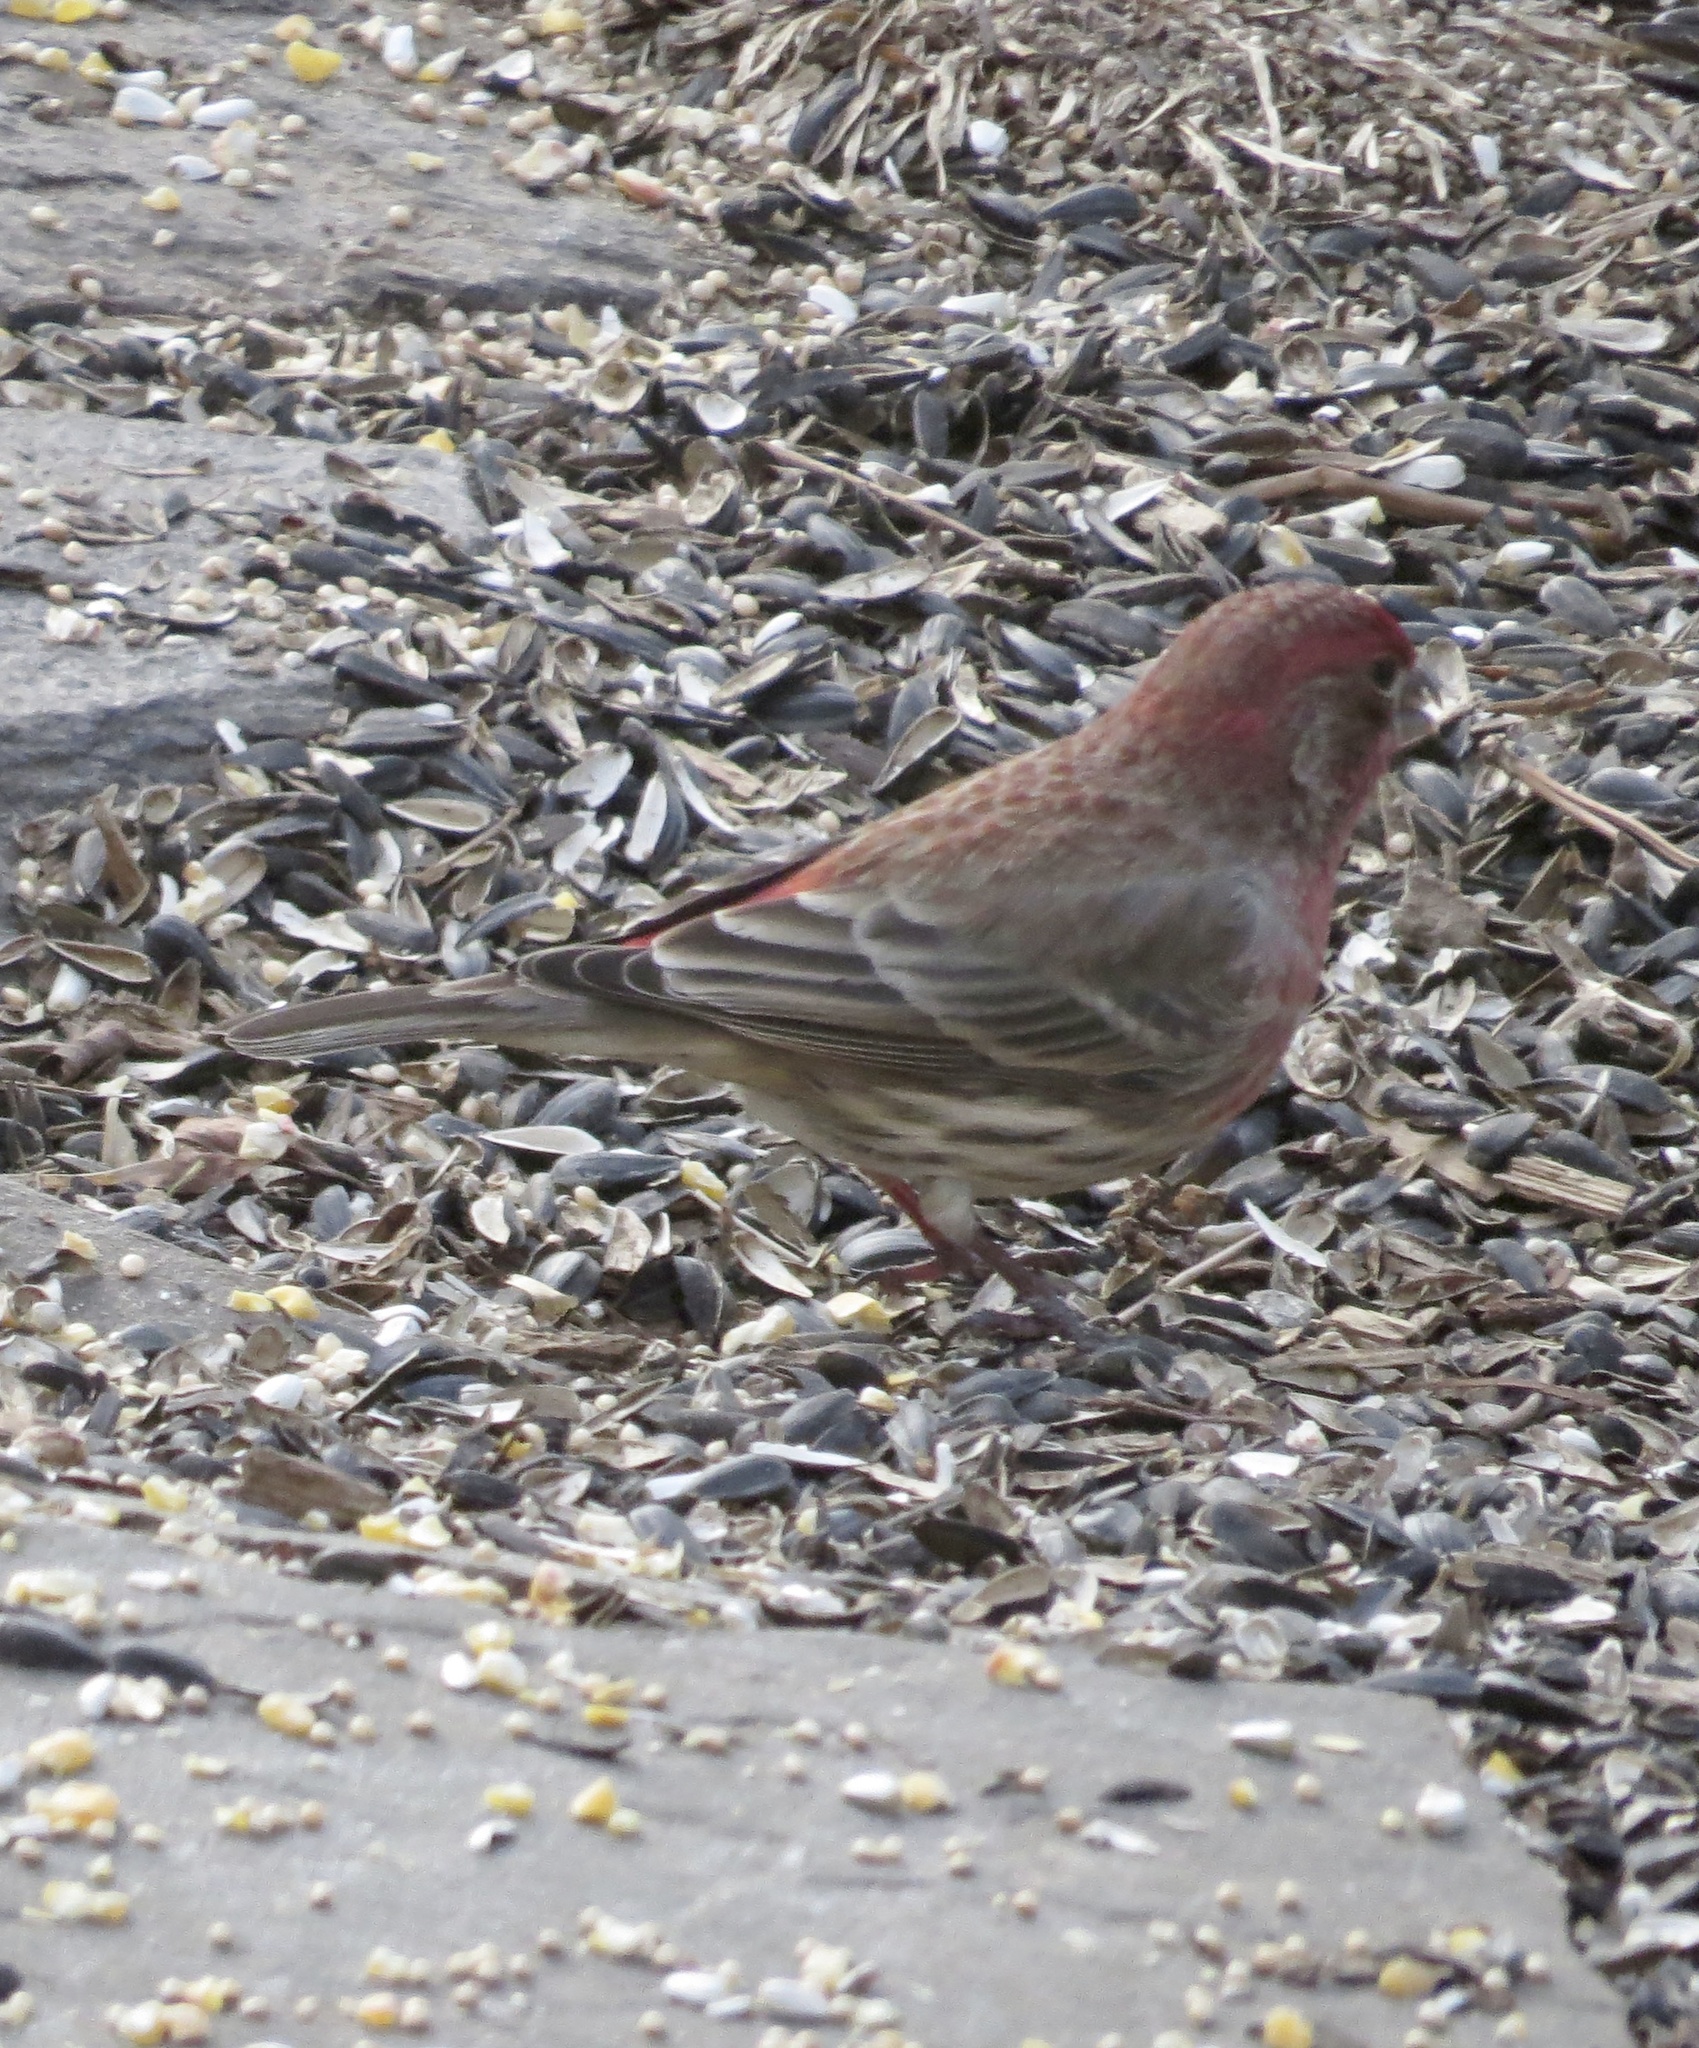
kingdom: Animalia
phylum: Chordata
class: Aves
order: Passeriformes
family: Fringillidae
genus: Haemorhous
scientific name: Haemorhous mexicanus
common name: House finch
